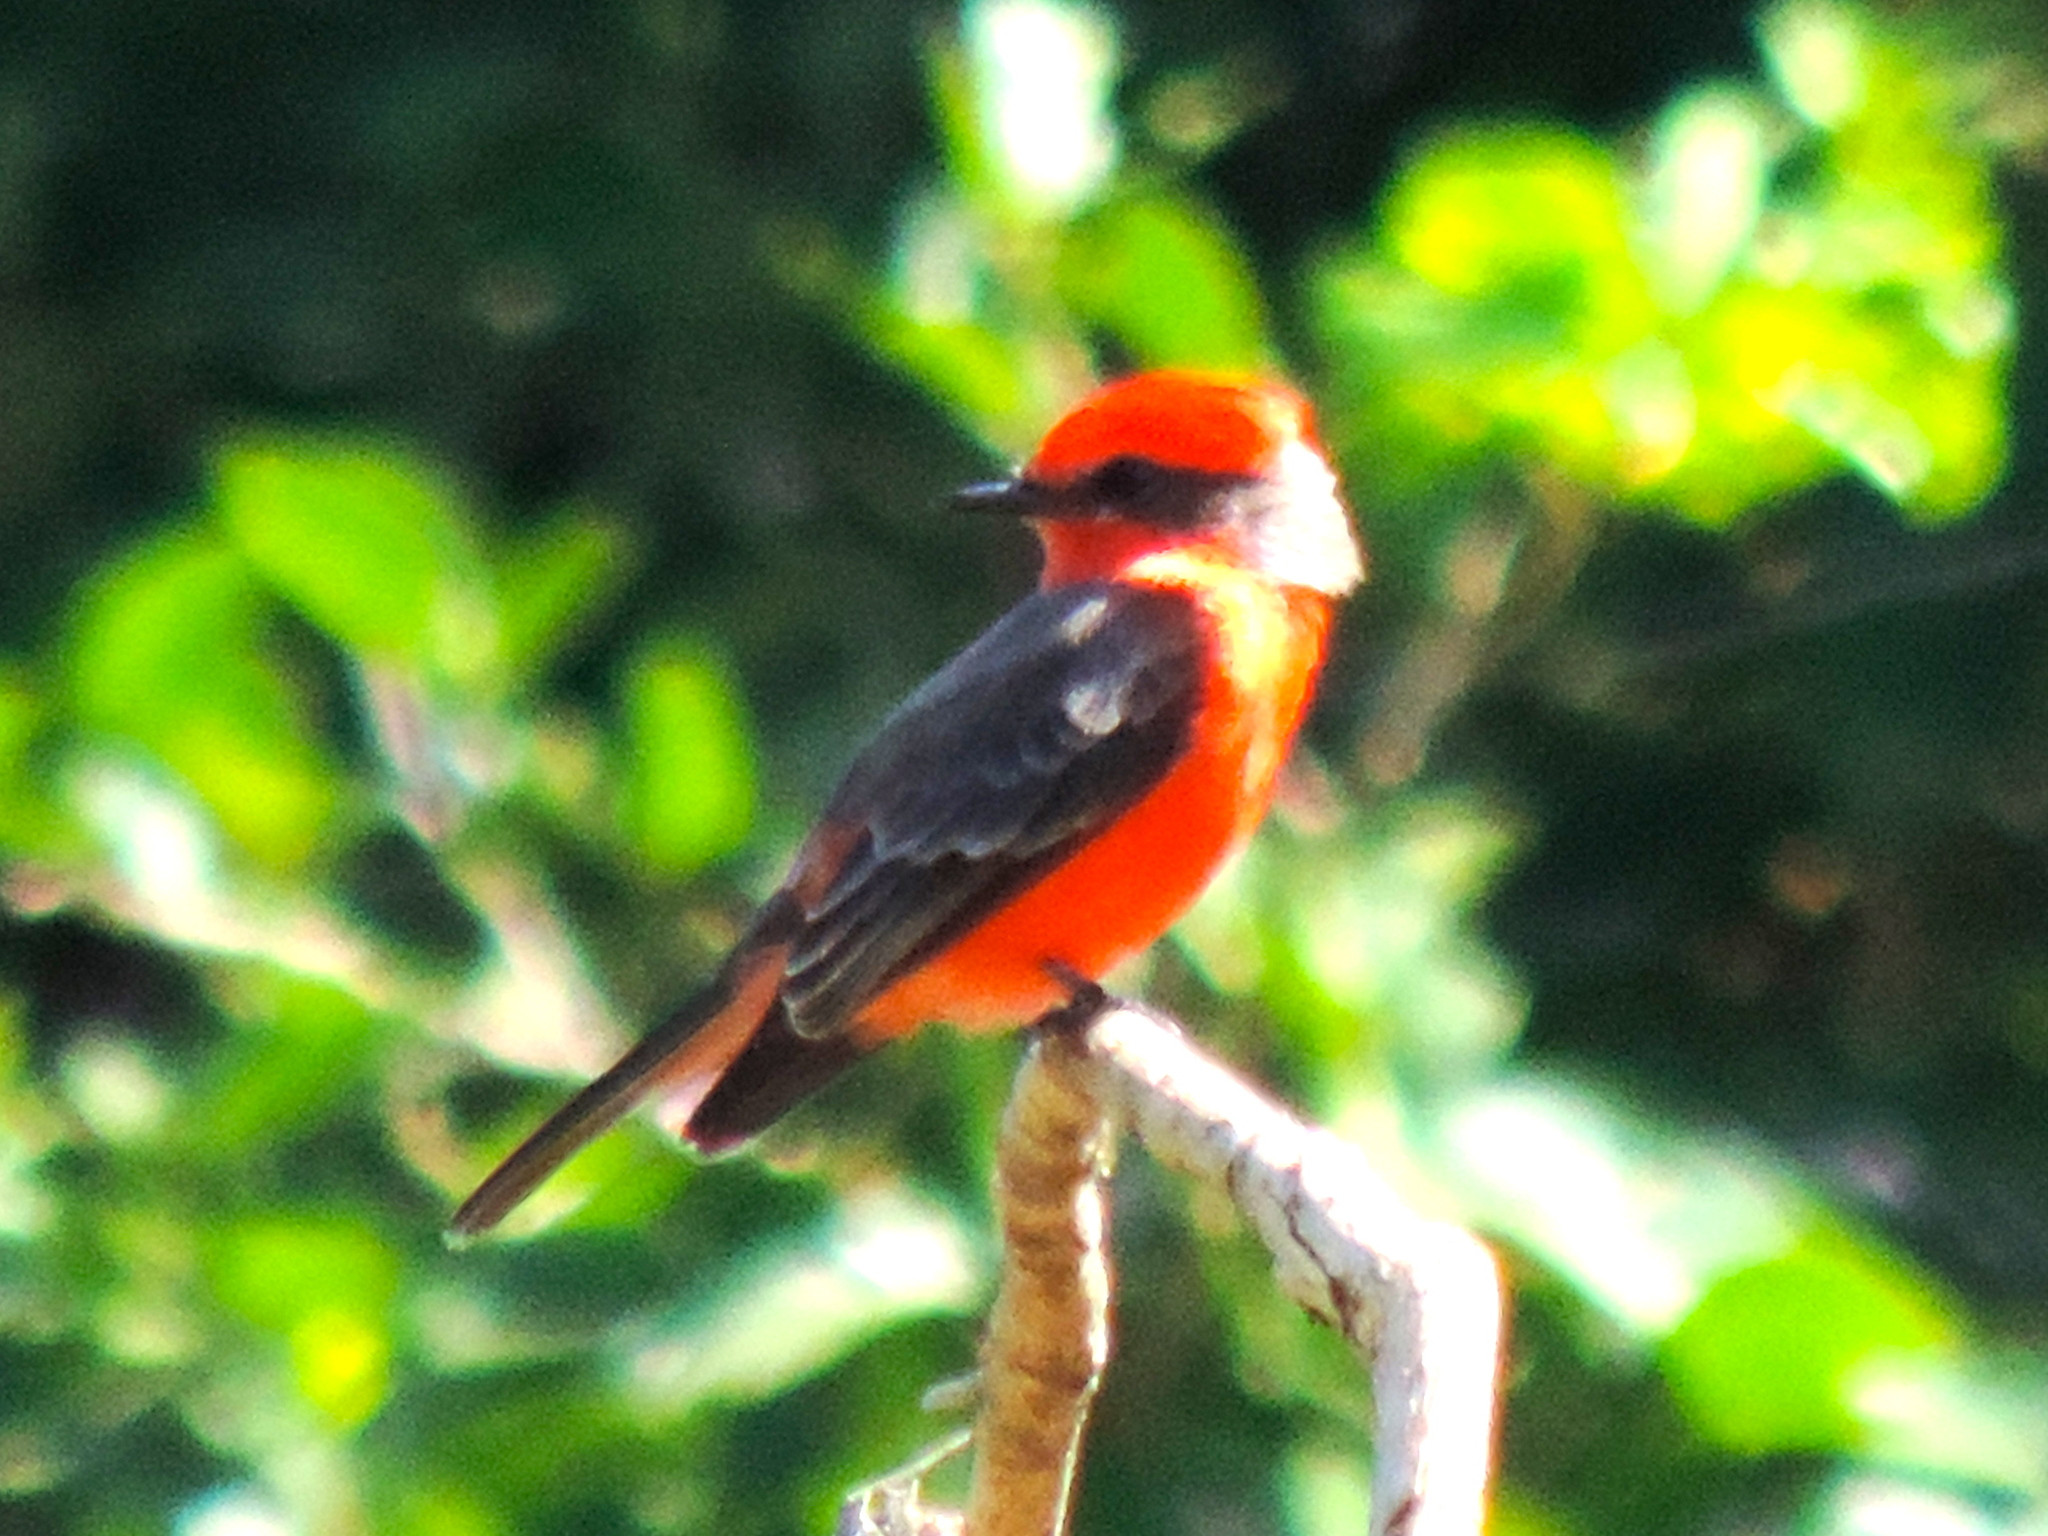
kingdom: Animalia
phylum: Chordata
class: Aves
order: Passeriformes
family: Tyrannidae
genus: Pyrocephalus
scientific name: Pyrocephalus rubinus
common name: Vermilion flycatcher
